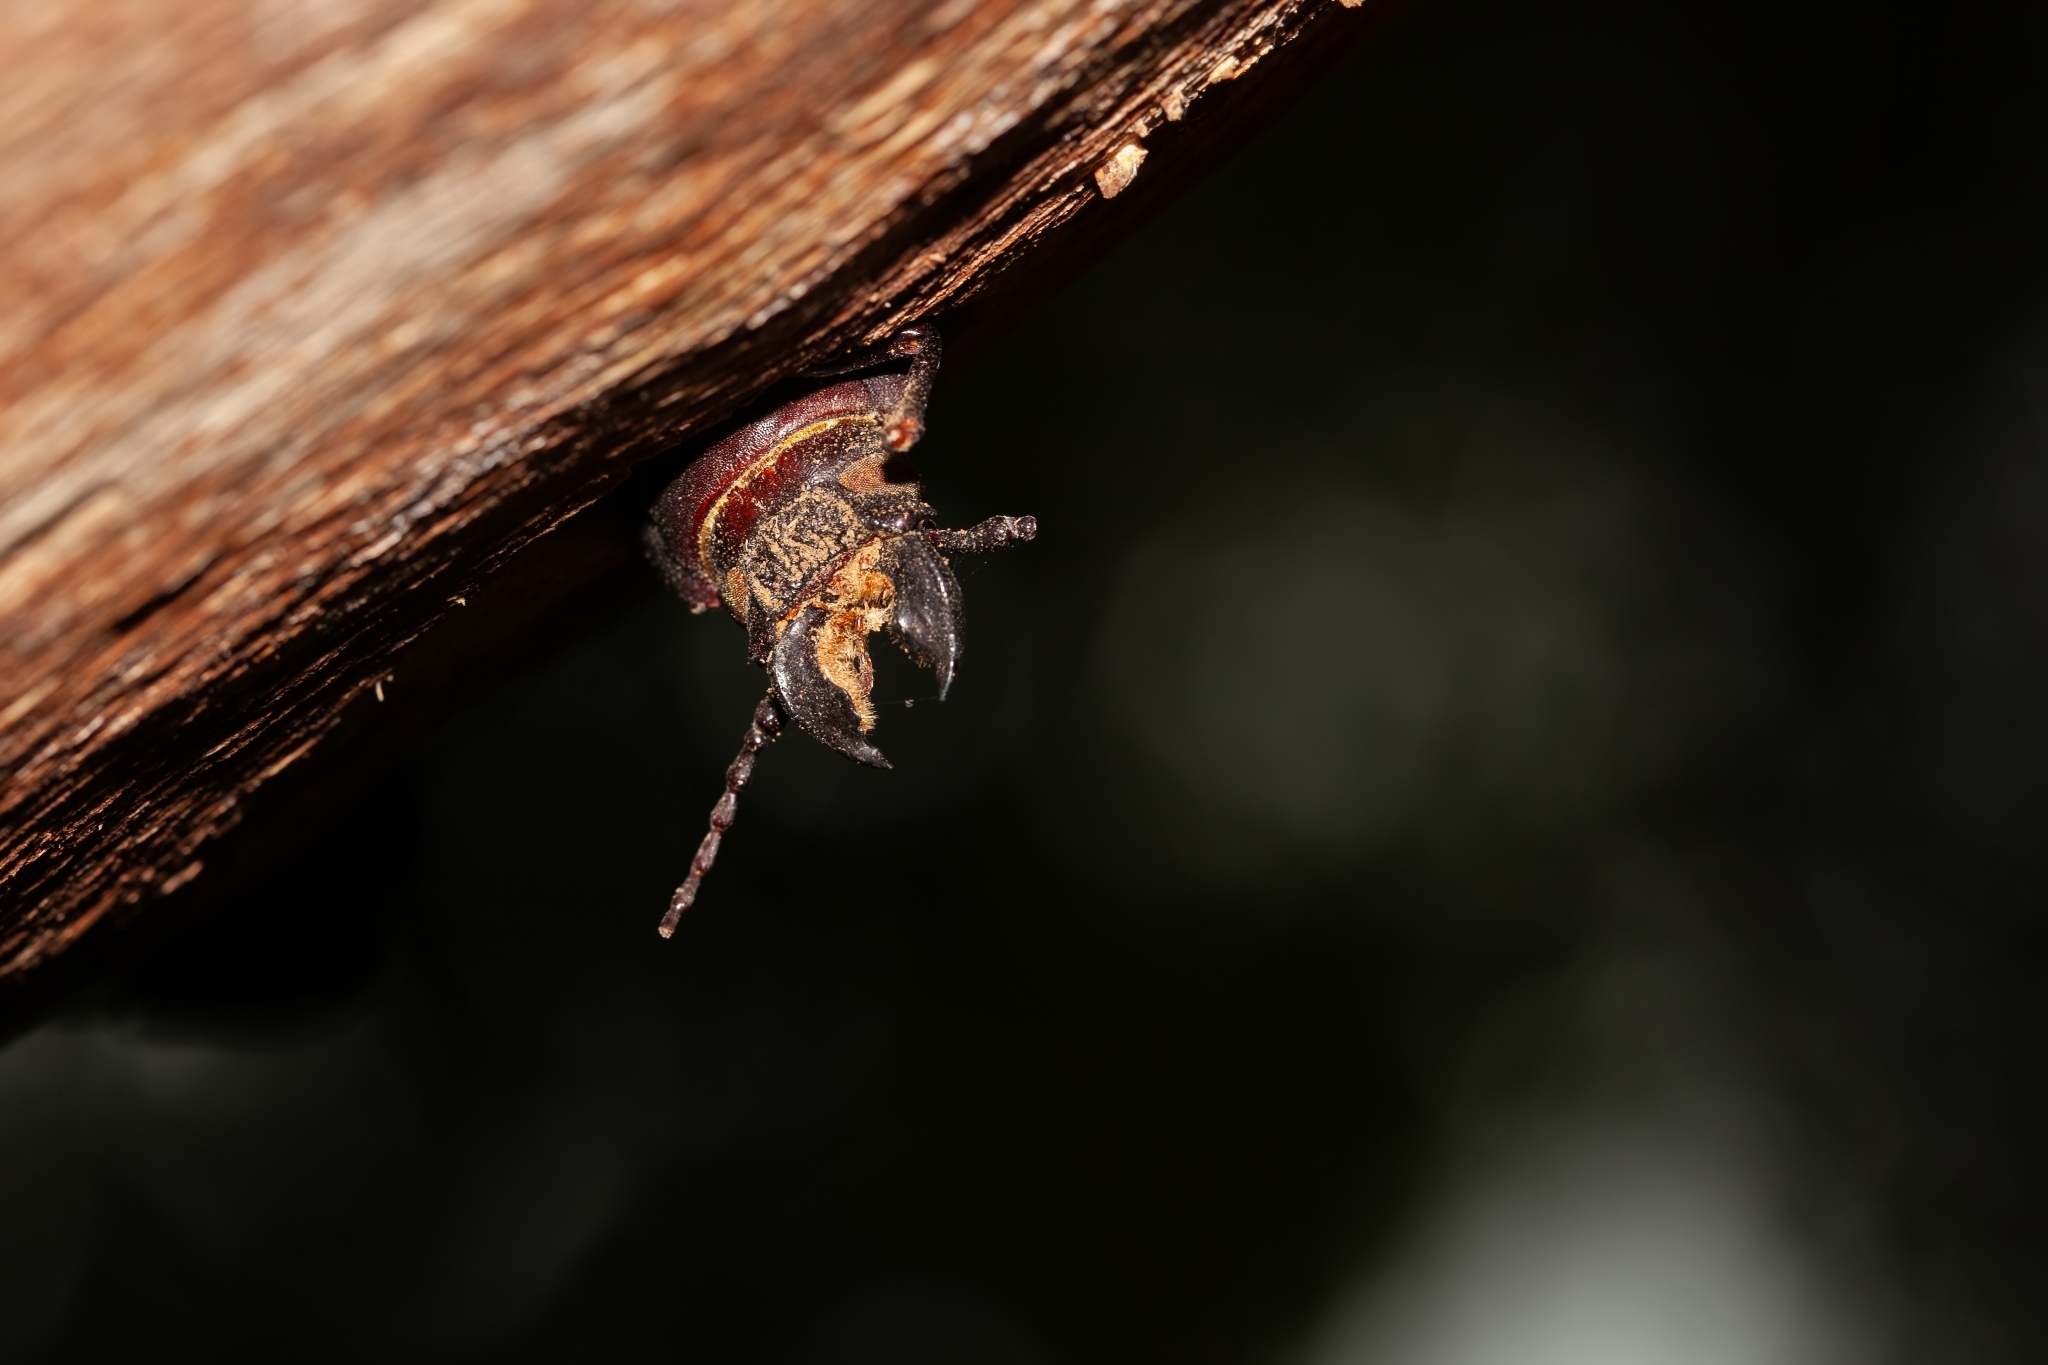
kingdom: Animalia
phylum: Arthropoda
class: Insecta
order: Coleoptera
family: Cerambycidae
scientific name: Cerambycidae
